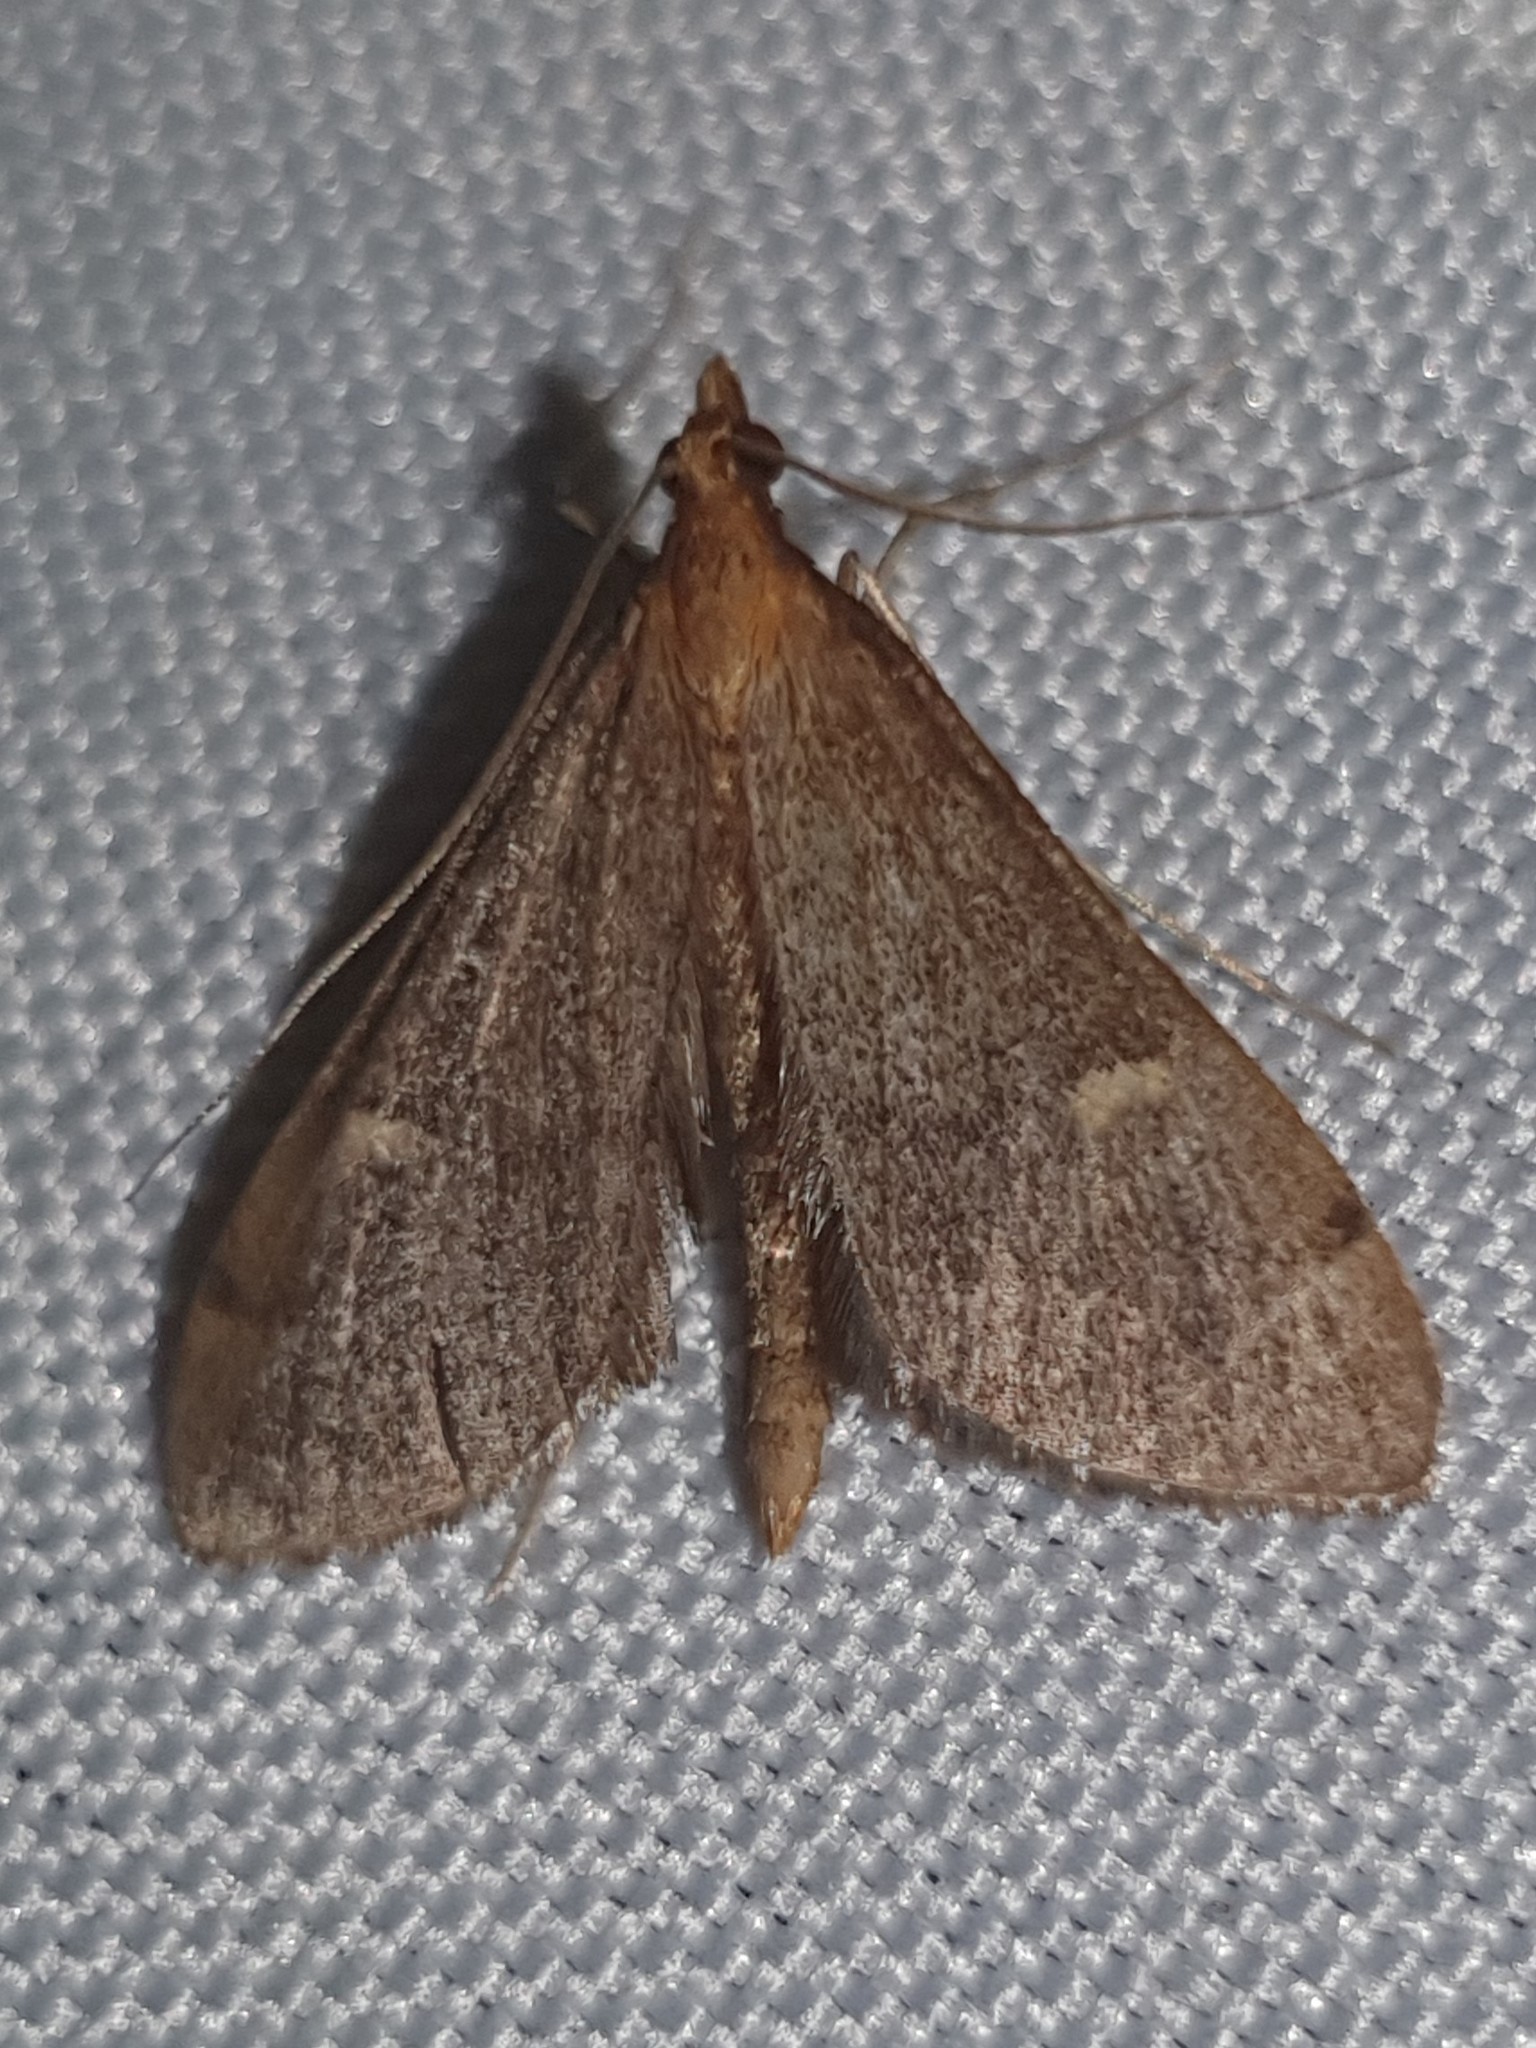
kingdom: Animalia
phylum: Arthropoda
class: Insecta
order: Lepidoptera
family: Crambidae
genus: Stenia
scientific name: Stenia Dolicharthria punctalis
